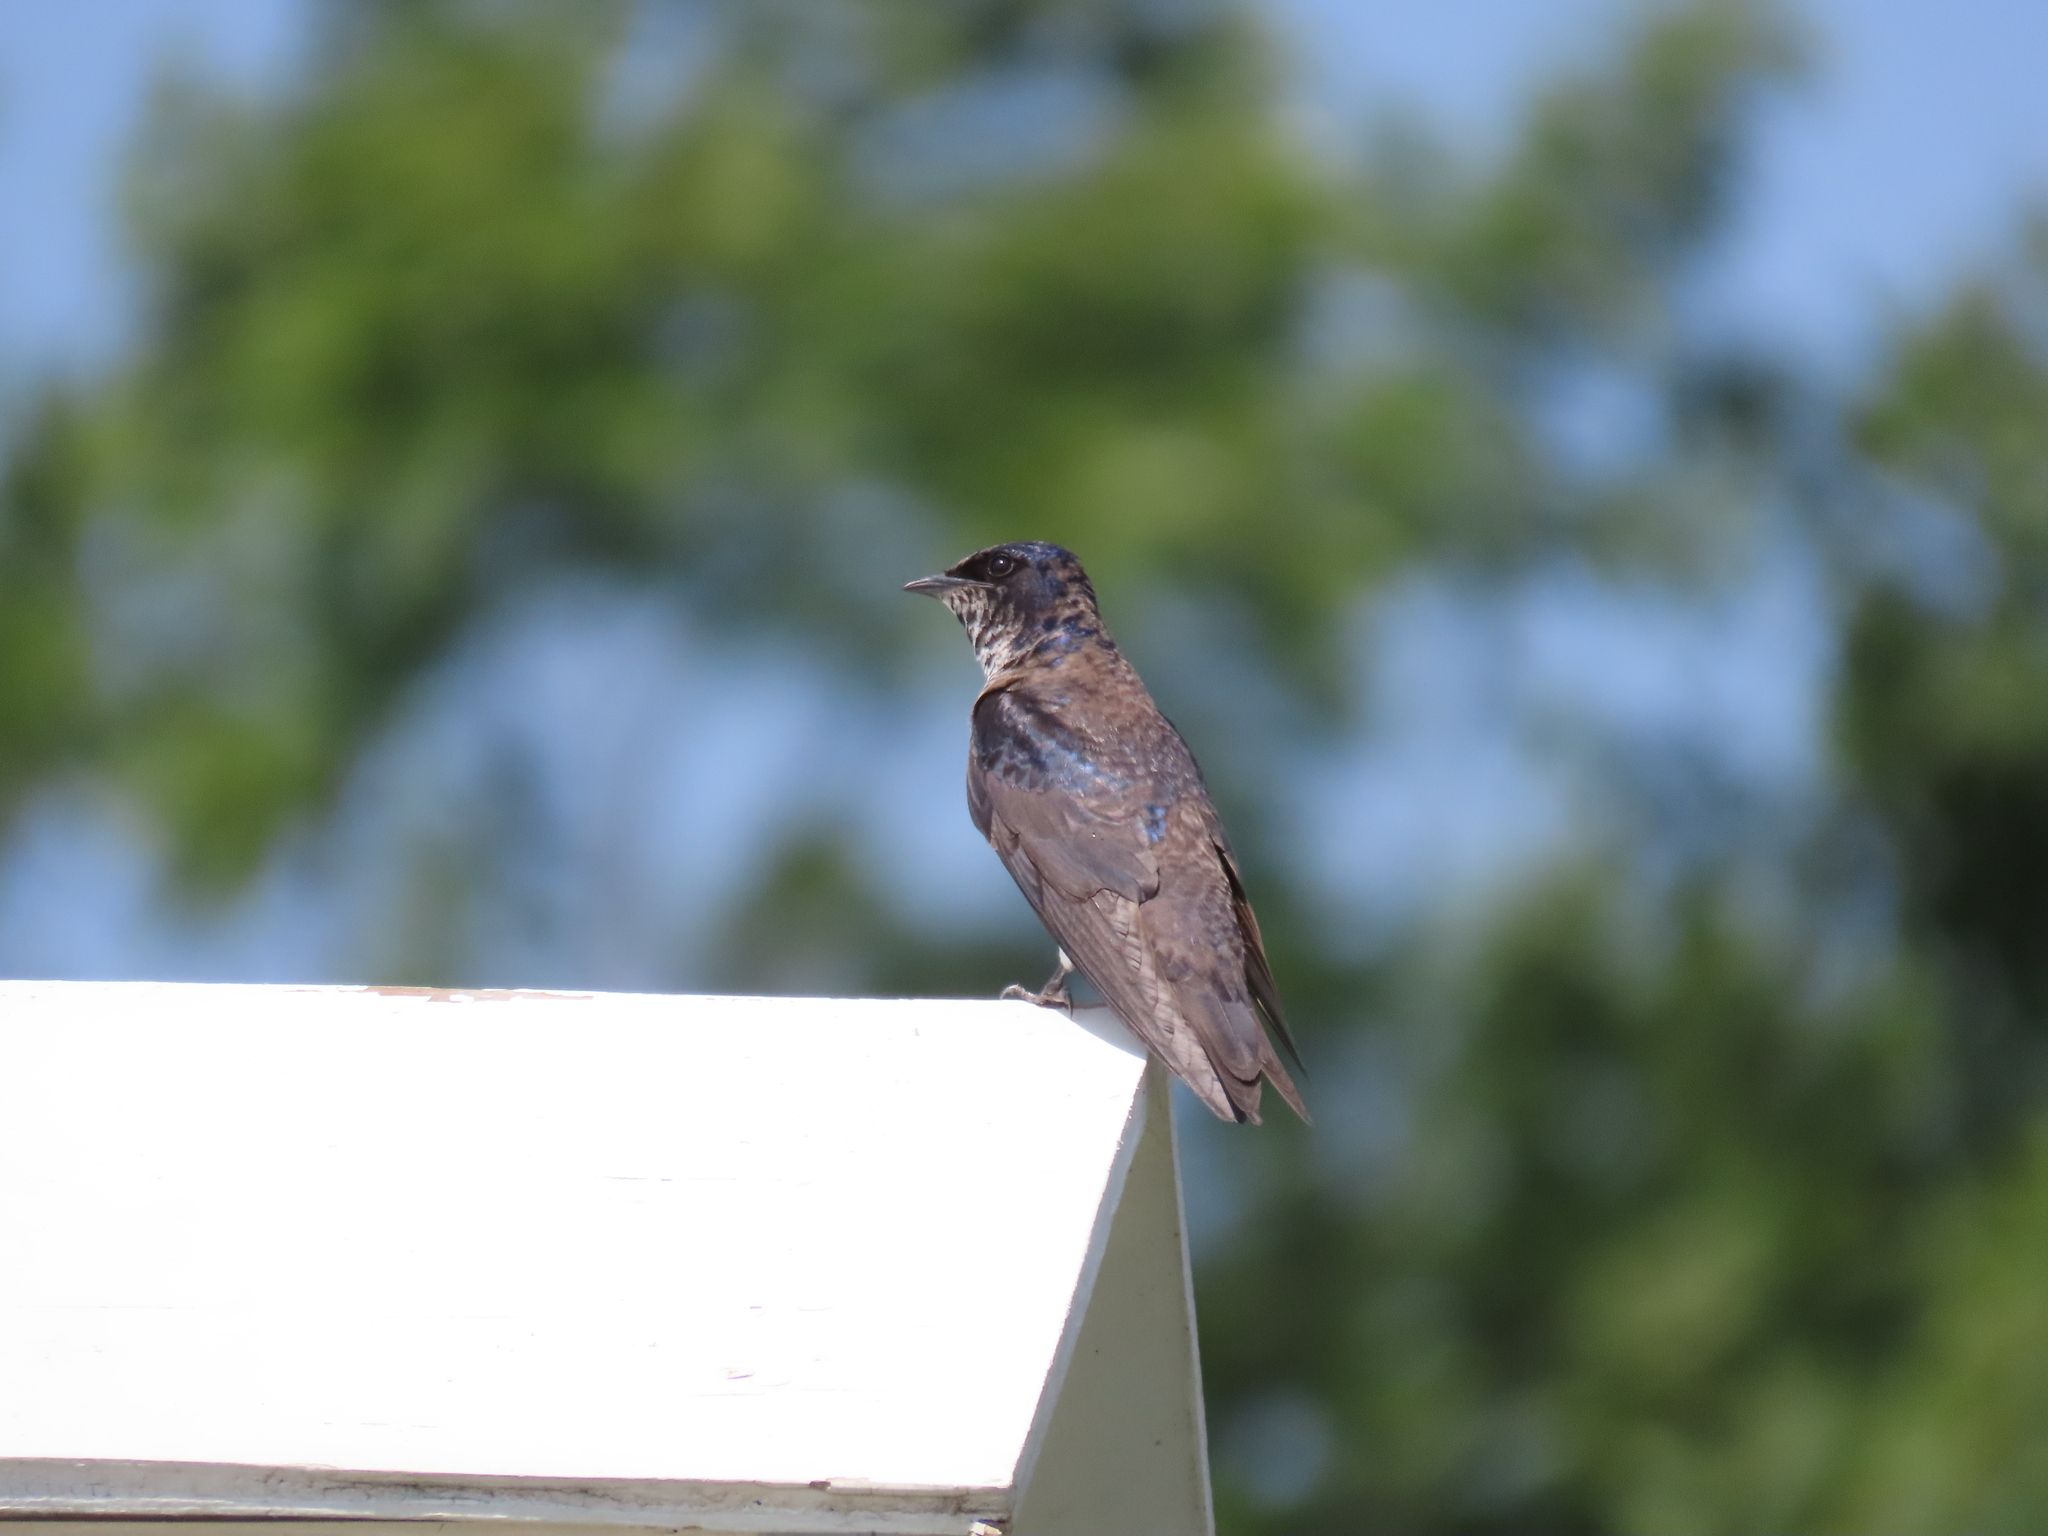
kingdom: Animalia
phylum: Chordata
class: Aves
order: Passeriformes
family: Hirundinidae
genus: Progne
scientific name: Progne subis
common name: Purple martin
